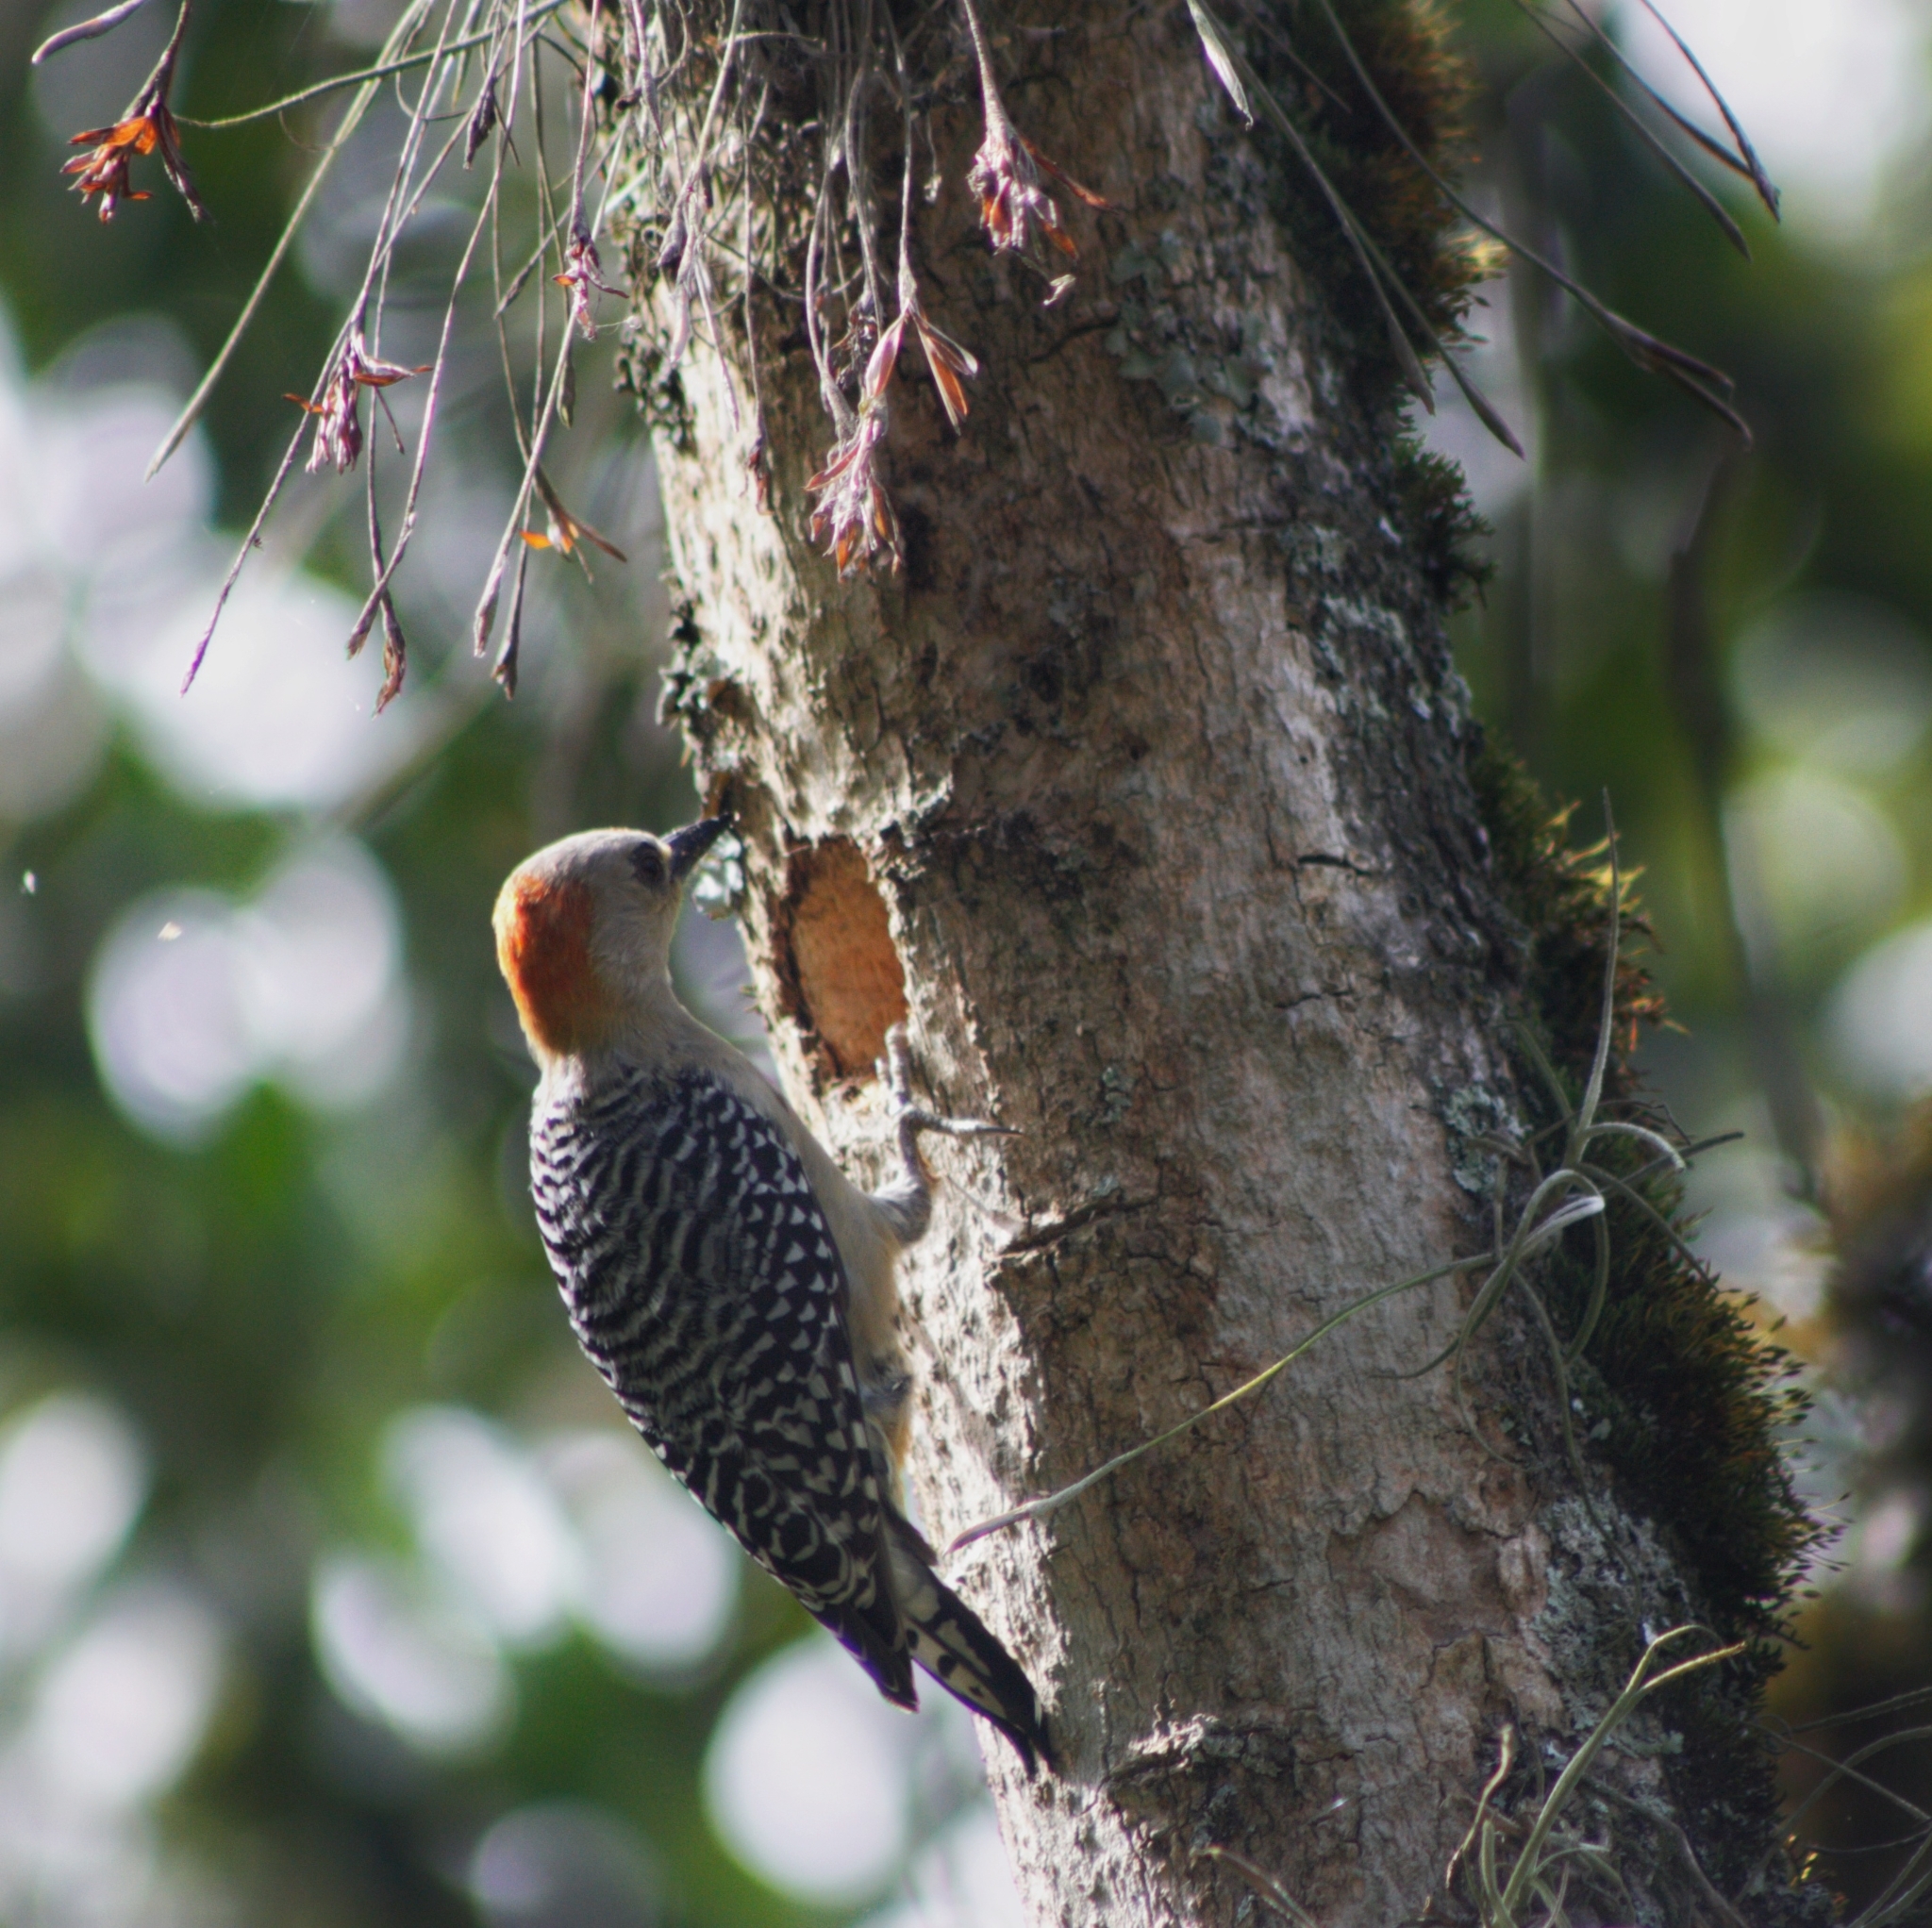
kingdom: Animalia
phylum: Chordata
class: Aves
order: Piciformes
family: Picidae
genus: Melanerpes
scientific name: Melanerpes rubricapillus
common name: Red-crowned woodpecker
